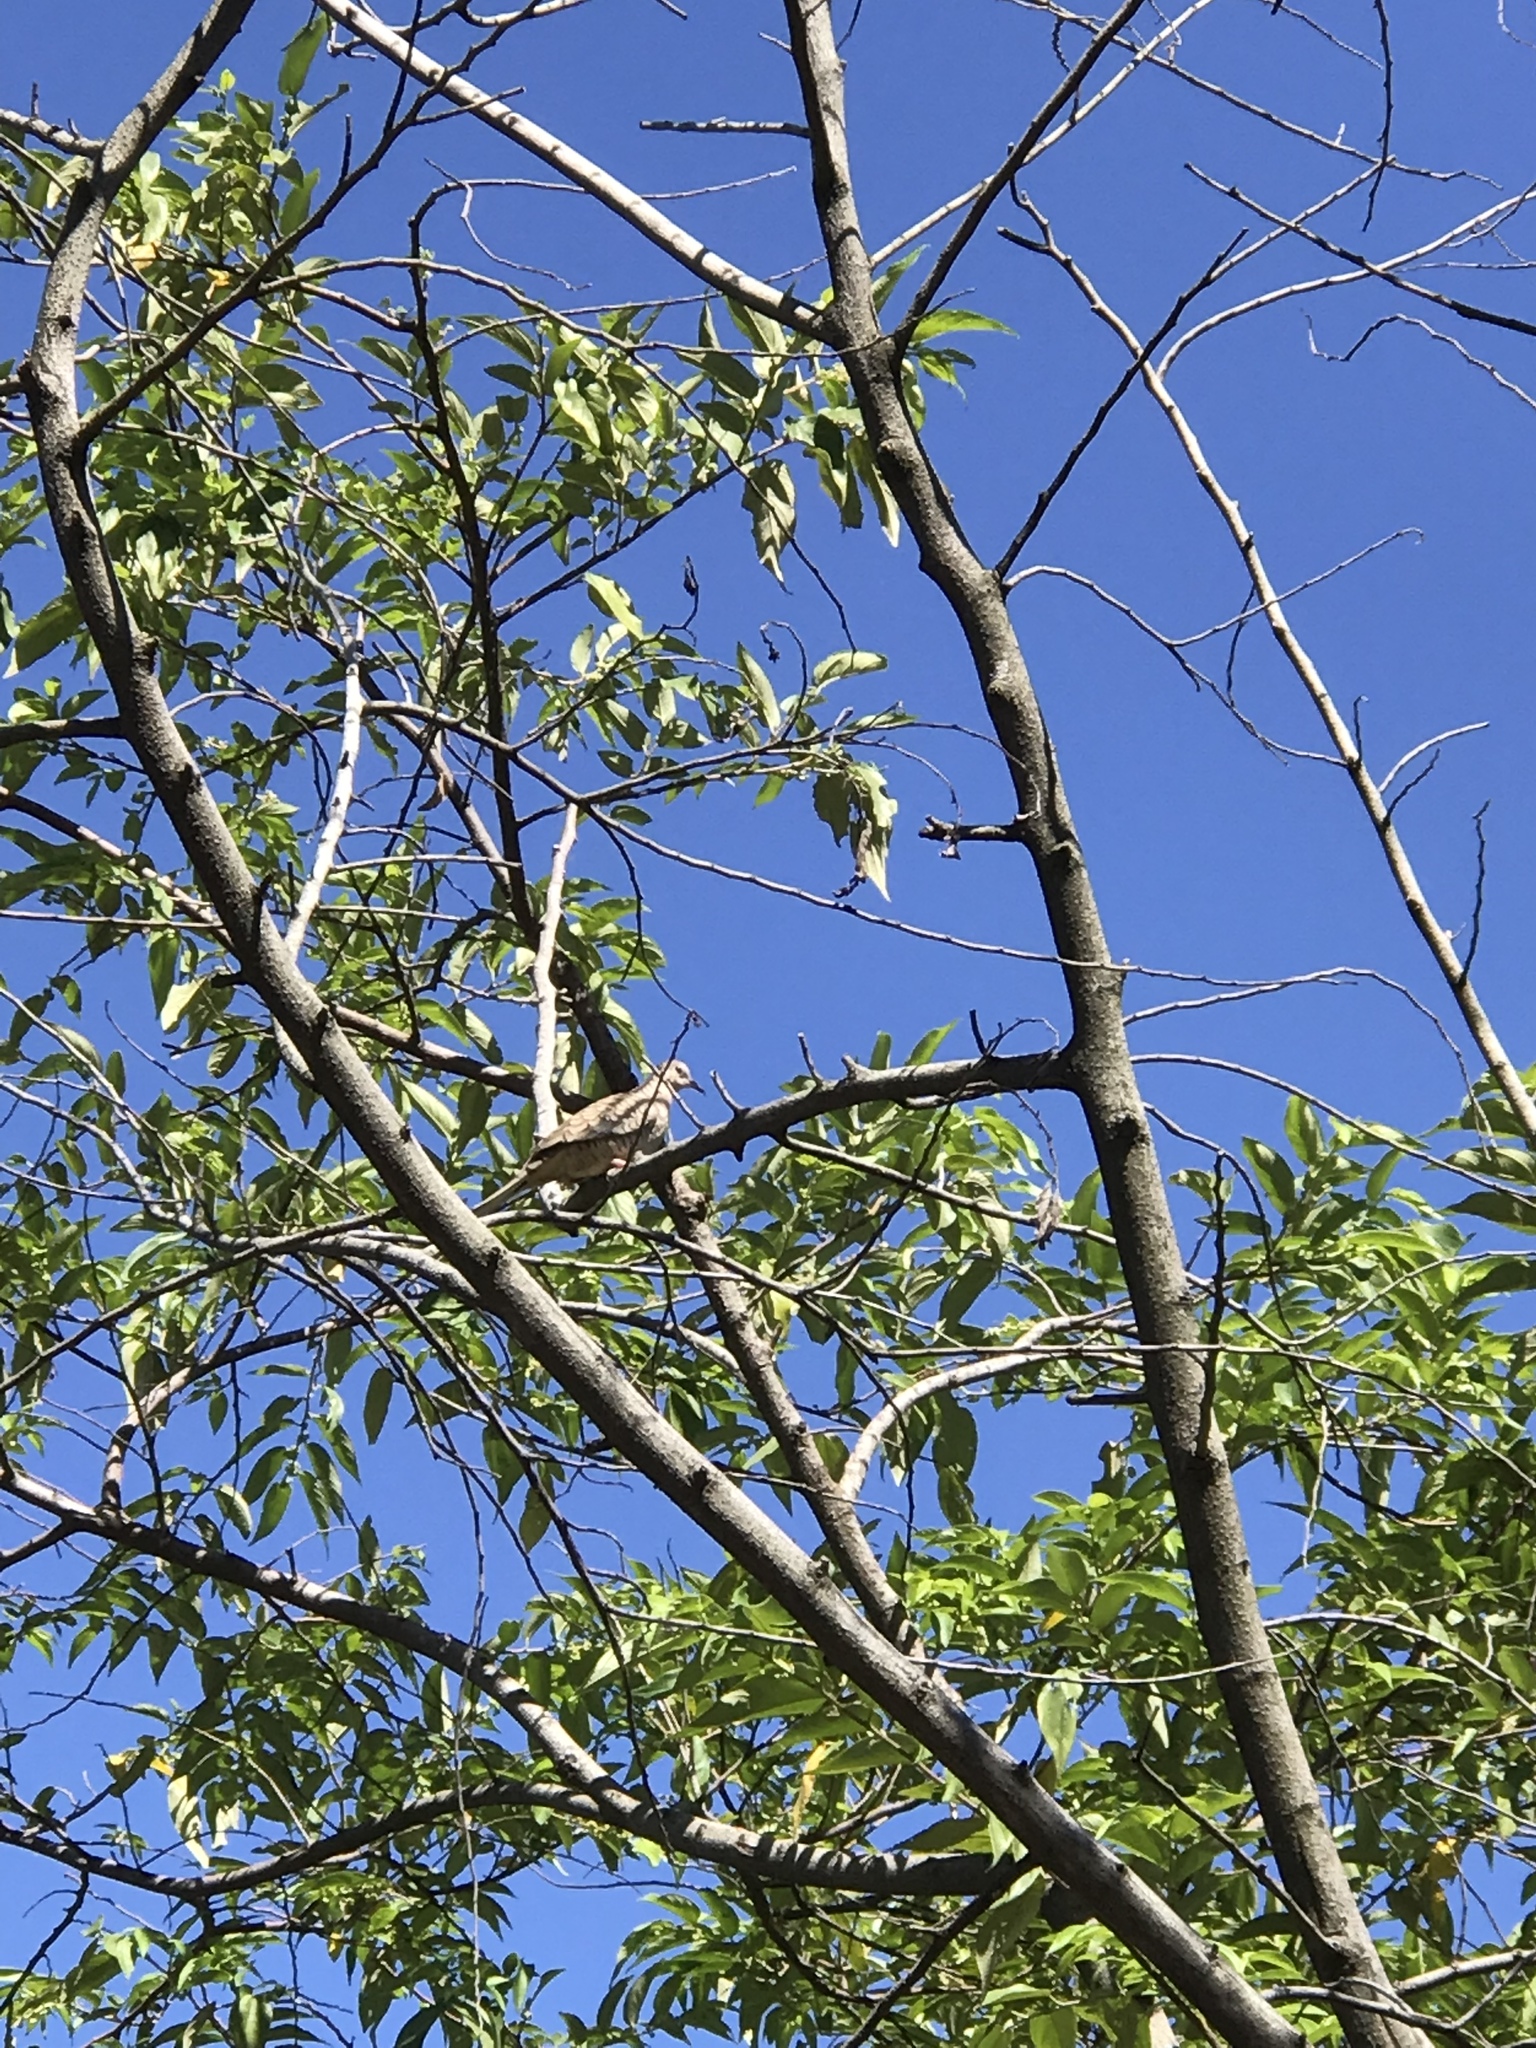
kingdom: Animalia
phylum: Chordata
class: Aves
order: Columbiformes
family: Columbidae
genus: Columbina
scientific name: Columbina inca
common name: Inca dove
